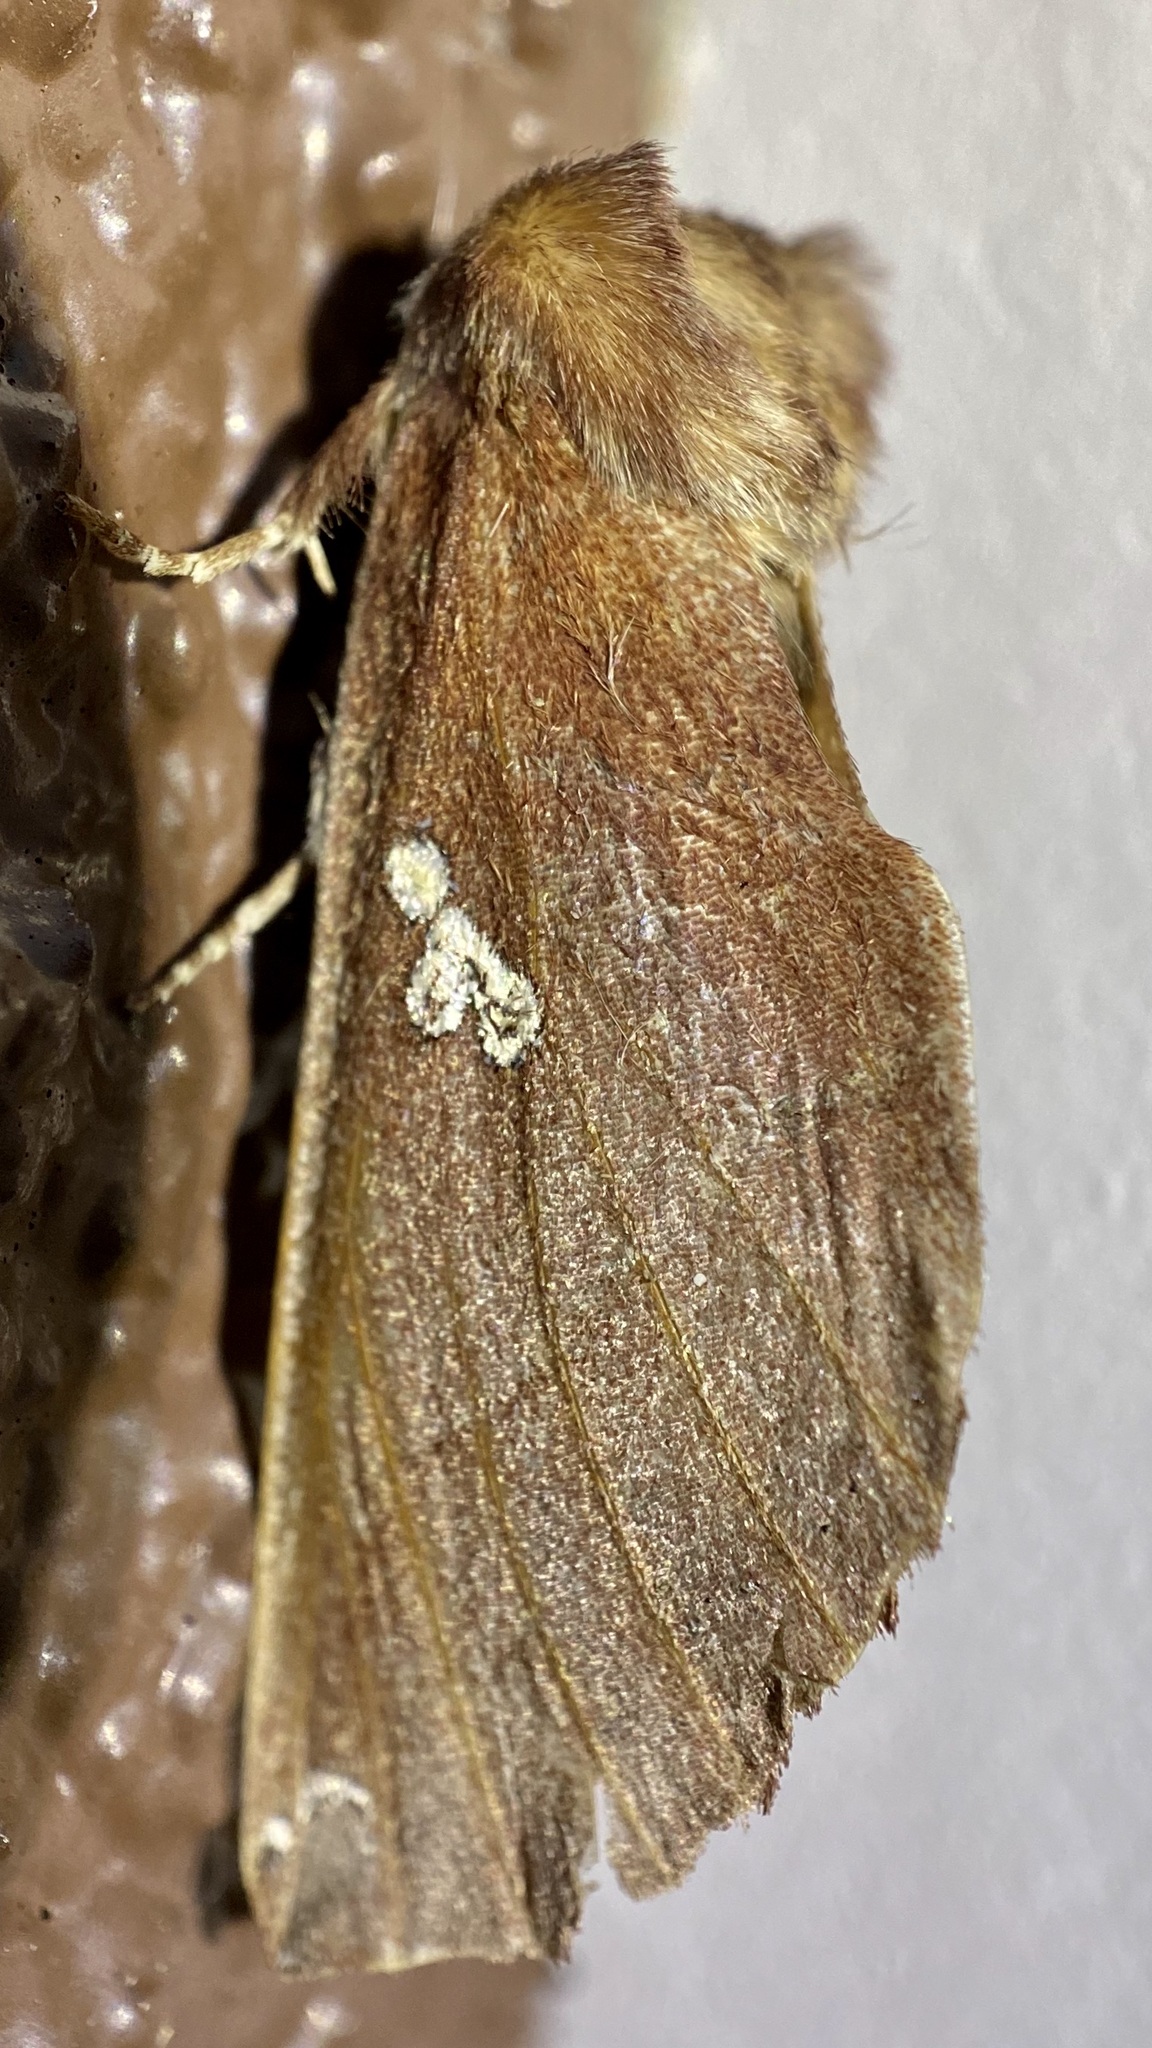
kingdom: Animalia
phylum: Arthropoda
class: Insecta
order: Lepidoptera
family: Notodontidae
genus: Pseudhapigia
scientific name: Pseudhapigia brunnea
